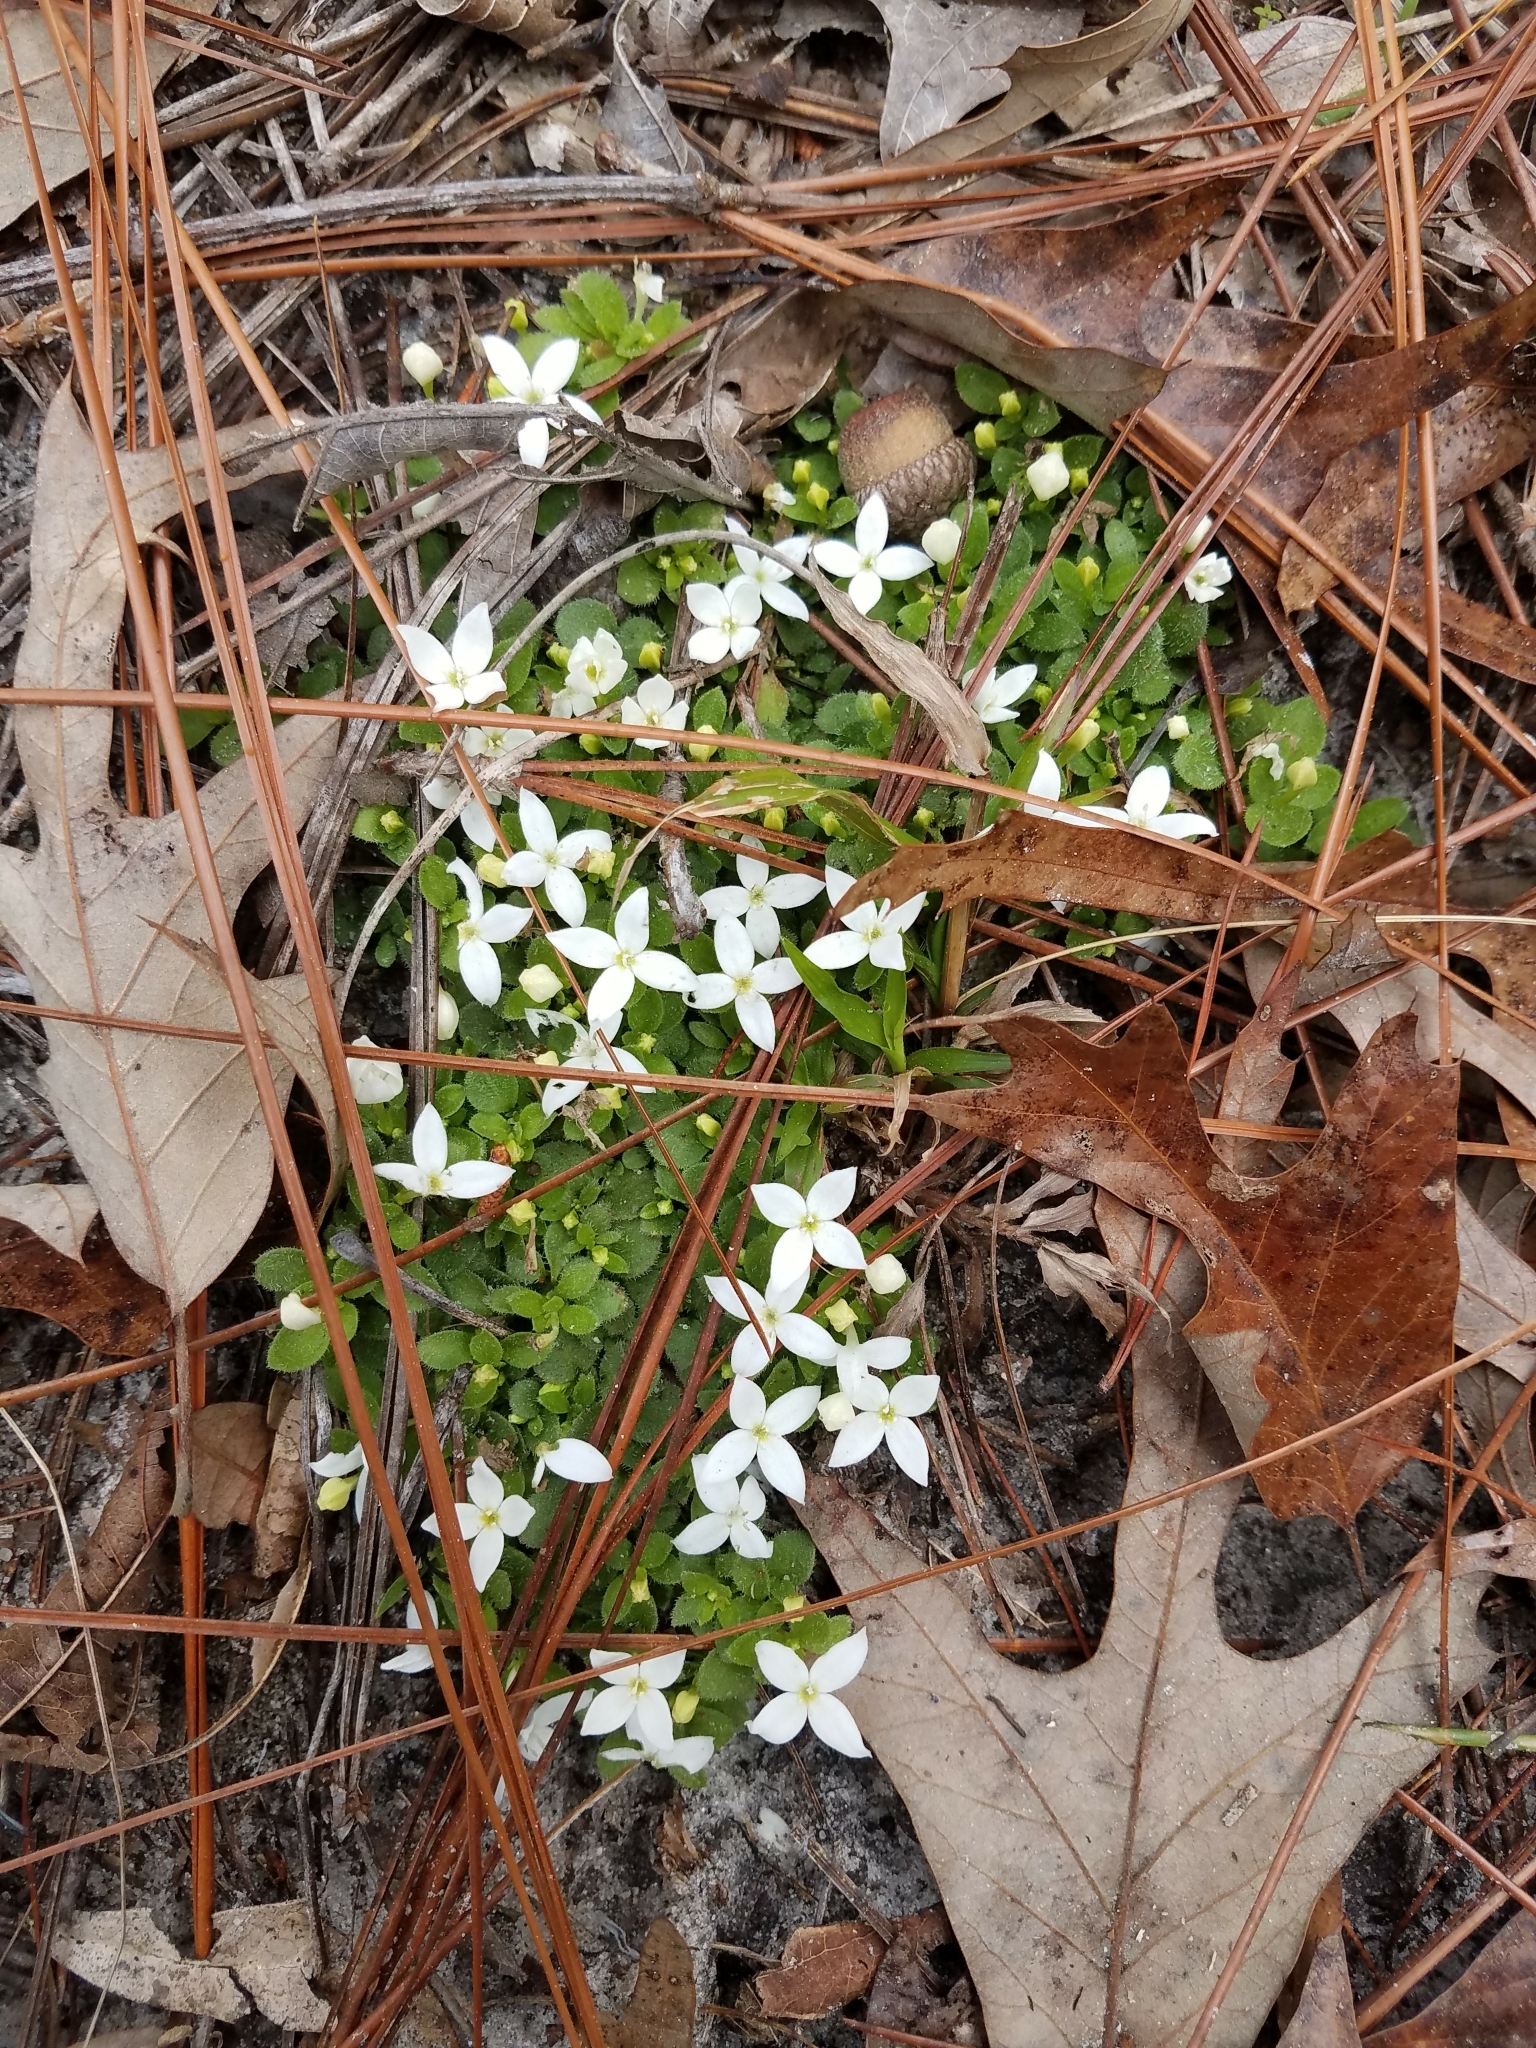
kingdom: Plantae
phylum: Tracheophyta
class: Magnoliopsida
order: Gentianales
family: Rubiaceae
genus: Houstonia
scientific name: Houstonia procumbens
